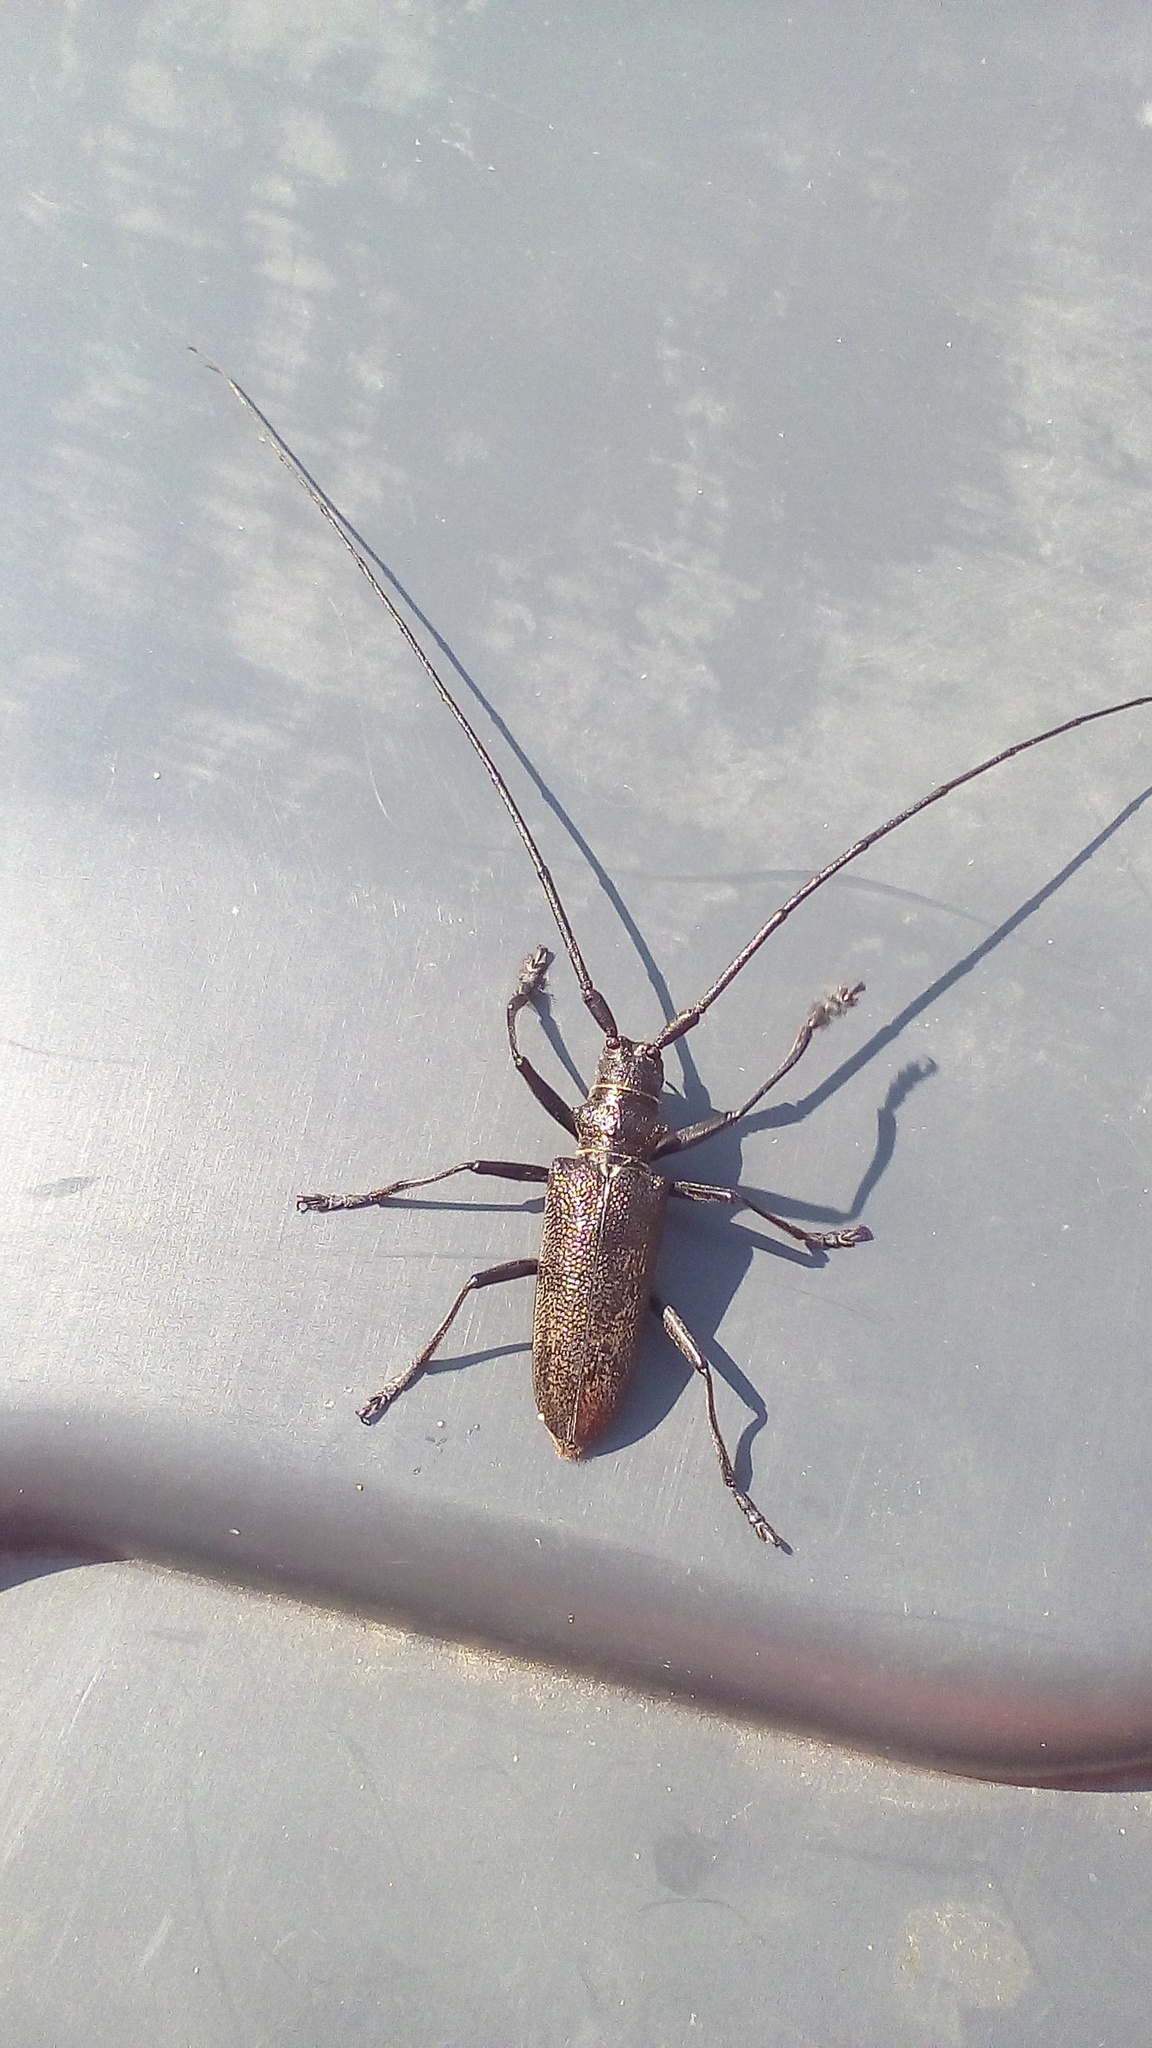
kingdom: Animalia
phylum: Arthropoda
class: Insecta
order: Coleoptera
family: Cerambycidae
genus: Monochamus
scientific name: Monochamus sutor
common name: Pine sawyer
